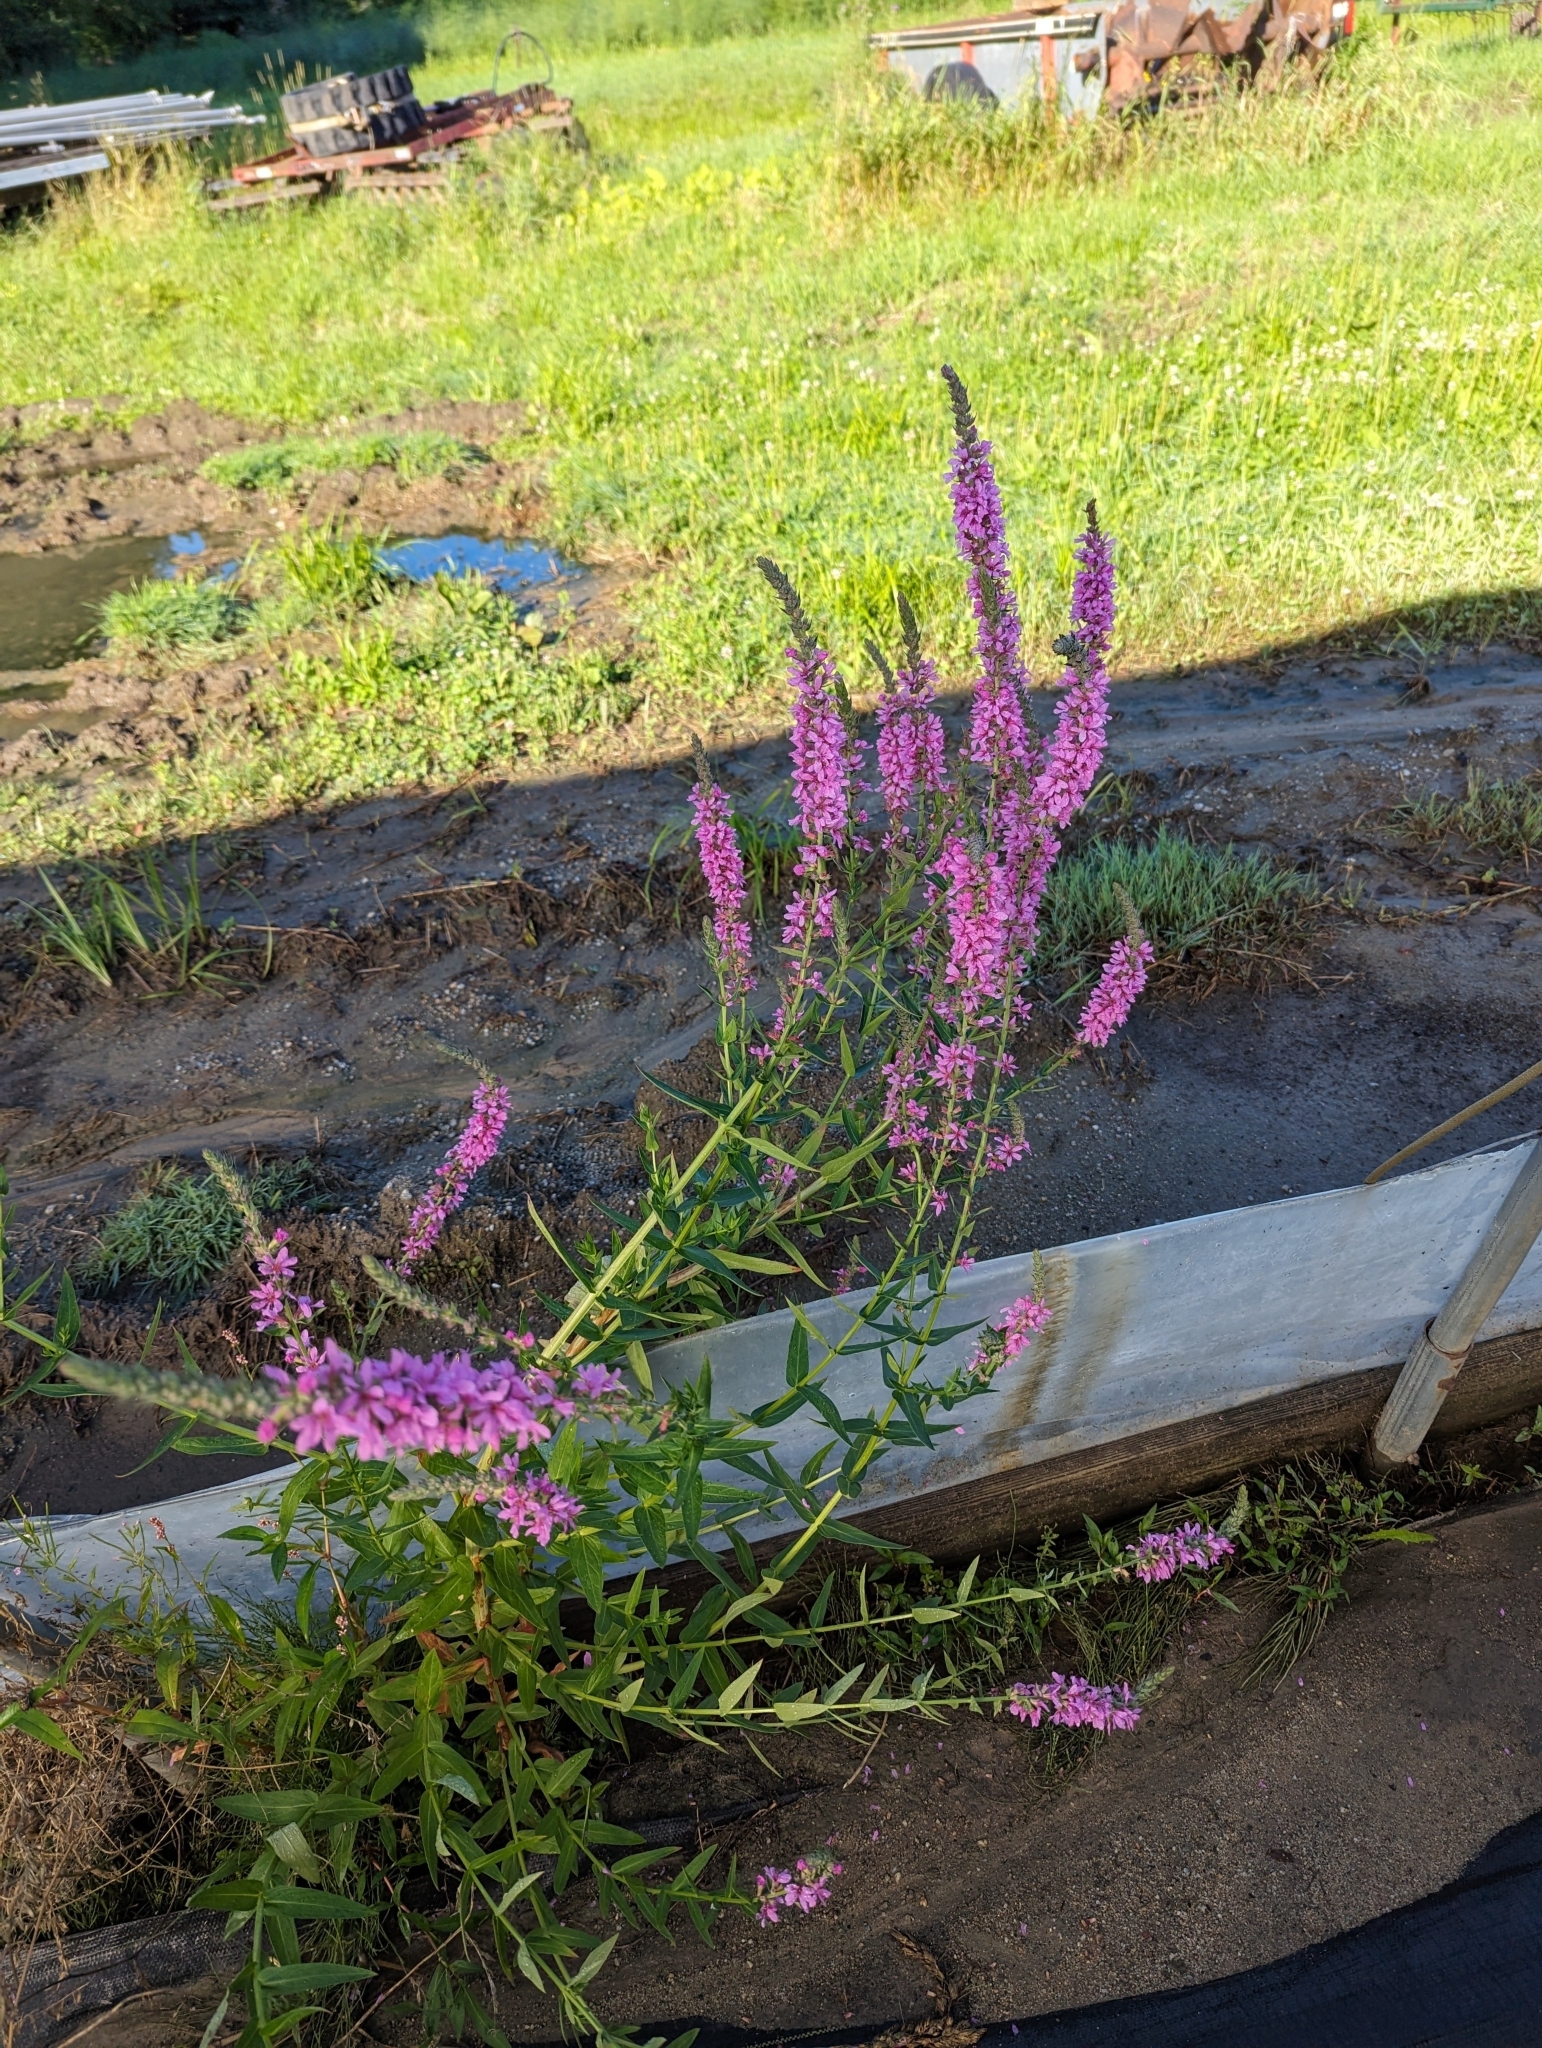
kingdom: Plantae
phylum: Tracheophyta
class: Magnoliopsida
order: Myrtales
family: Lythraceae
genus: Lythrum
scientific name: Lythrum salicaria
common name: Purple loosestrife
